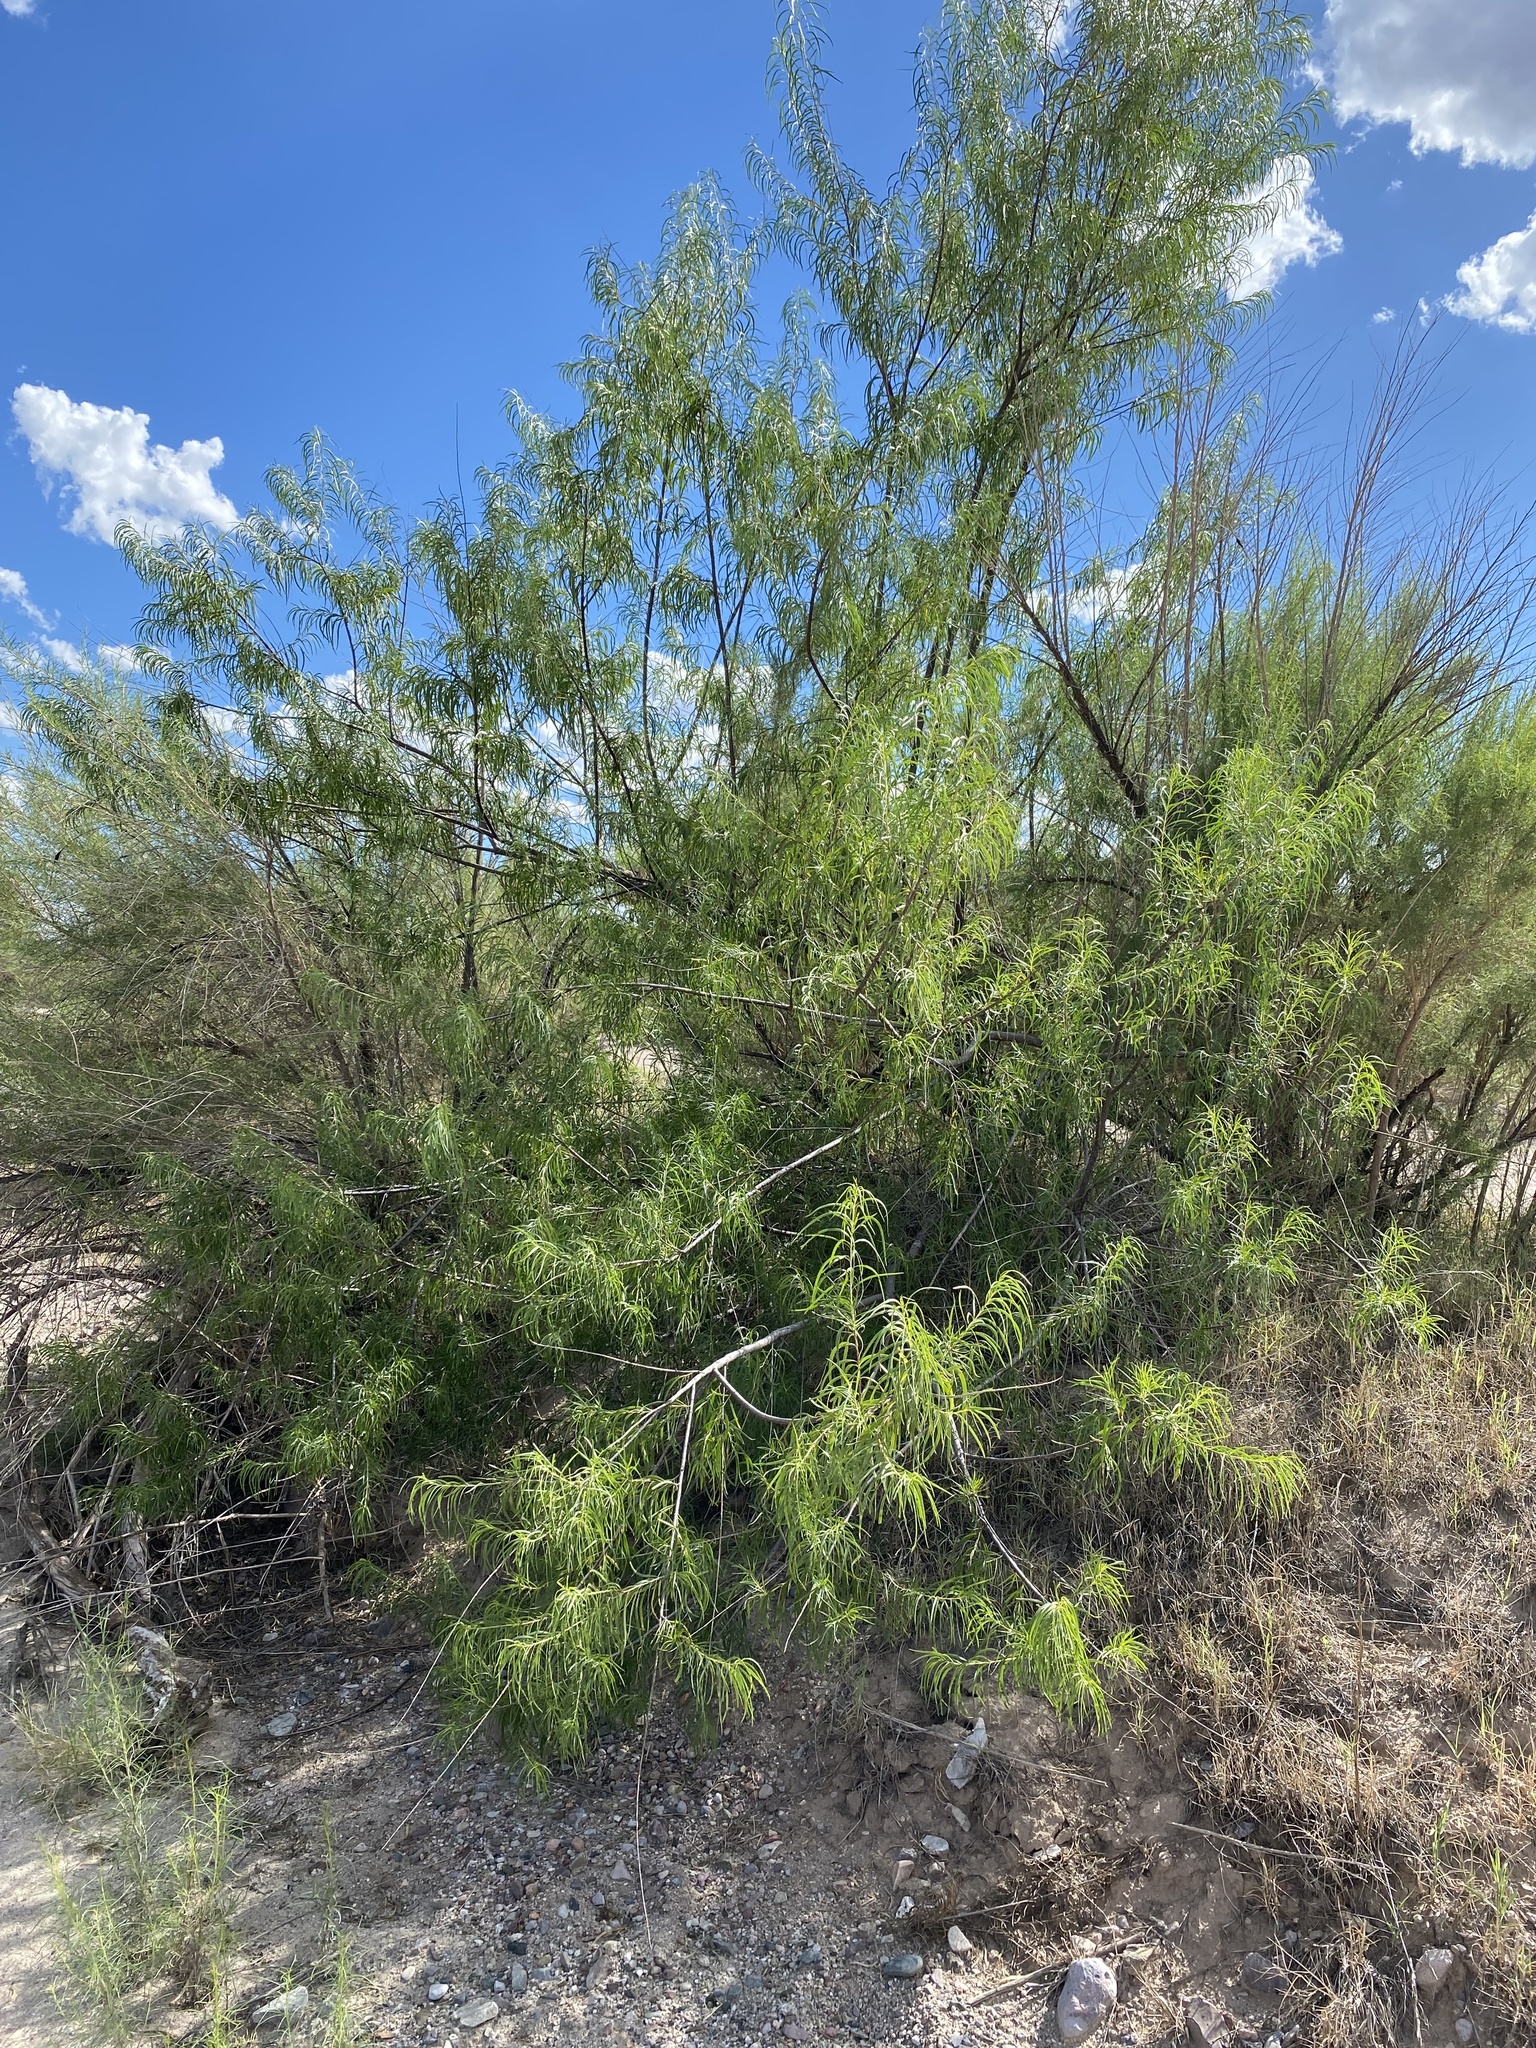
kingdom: Plantae
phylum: Tracheophyta
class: Magnoliopsida
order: Lamiales
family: Bignoniaceae
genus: Chilopsis
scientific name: Chilopsis linearis
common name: Desert-willow
